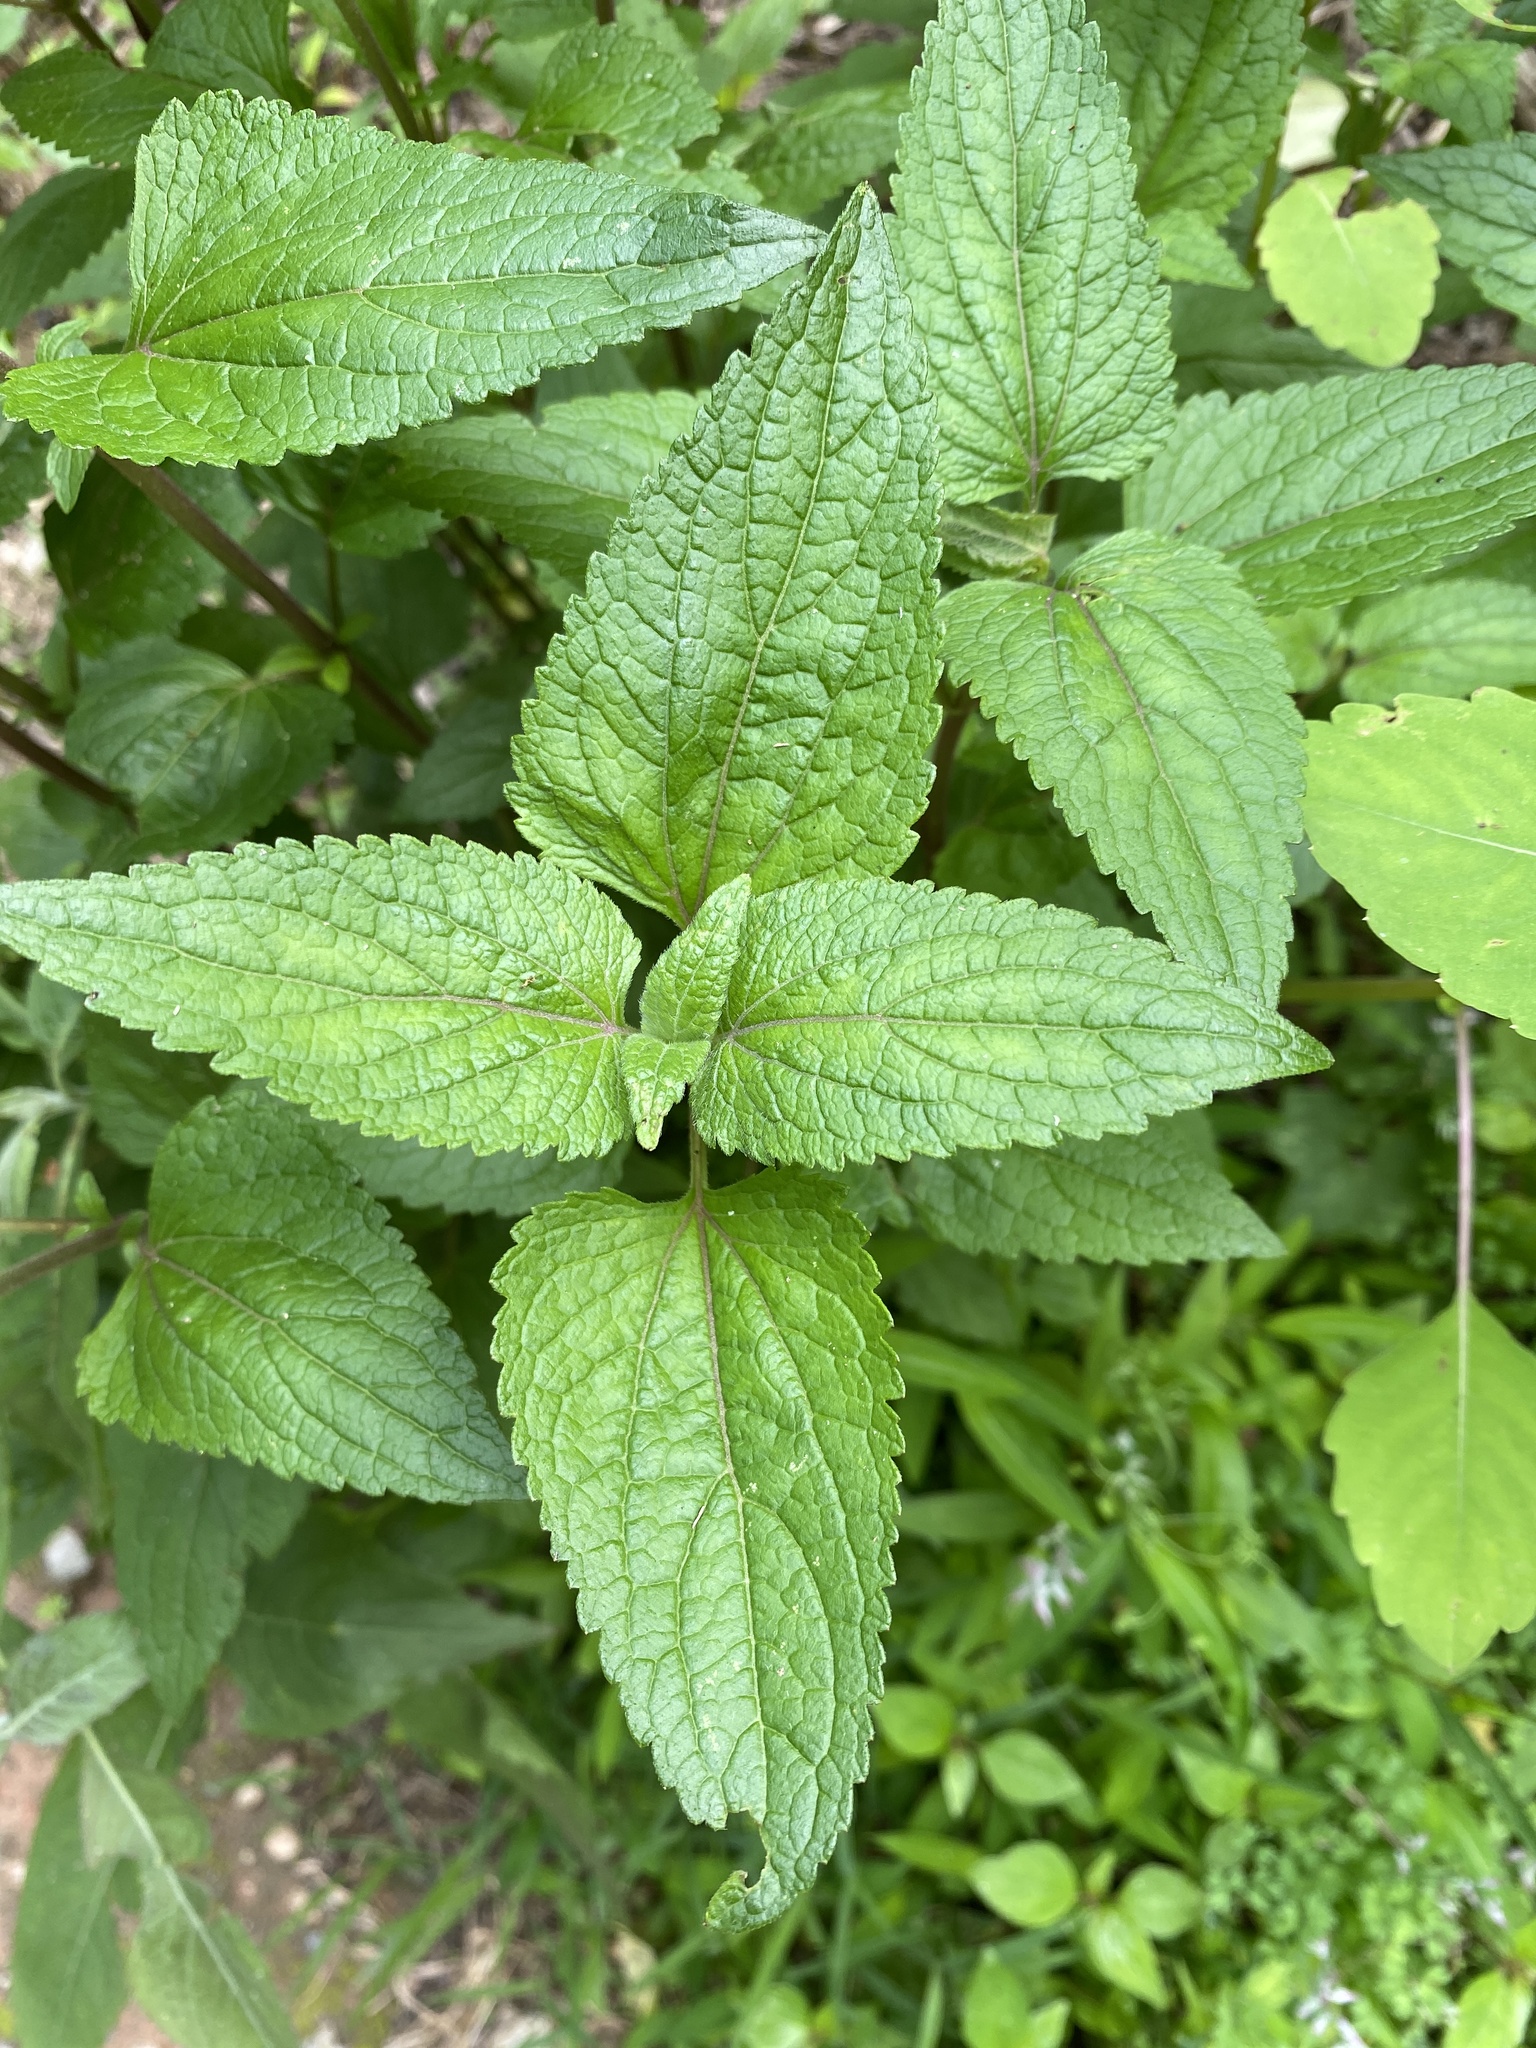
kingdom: Plantae
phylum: Tracheophyta
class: Magnoliopsida
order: Asterales
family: Asteraceae
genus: Conoclinium
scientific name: Conoclinium coelestinum
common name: Blue mistflower
